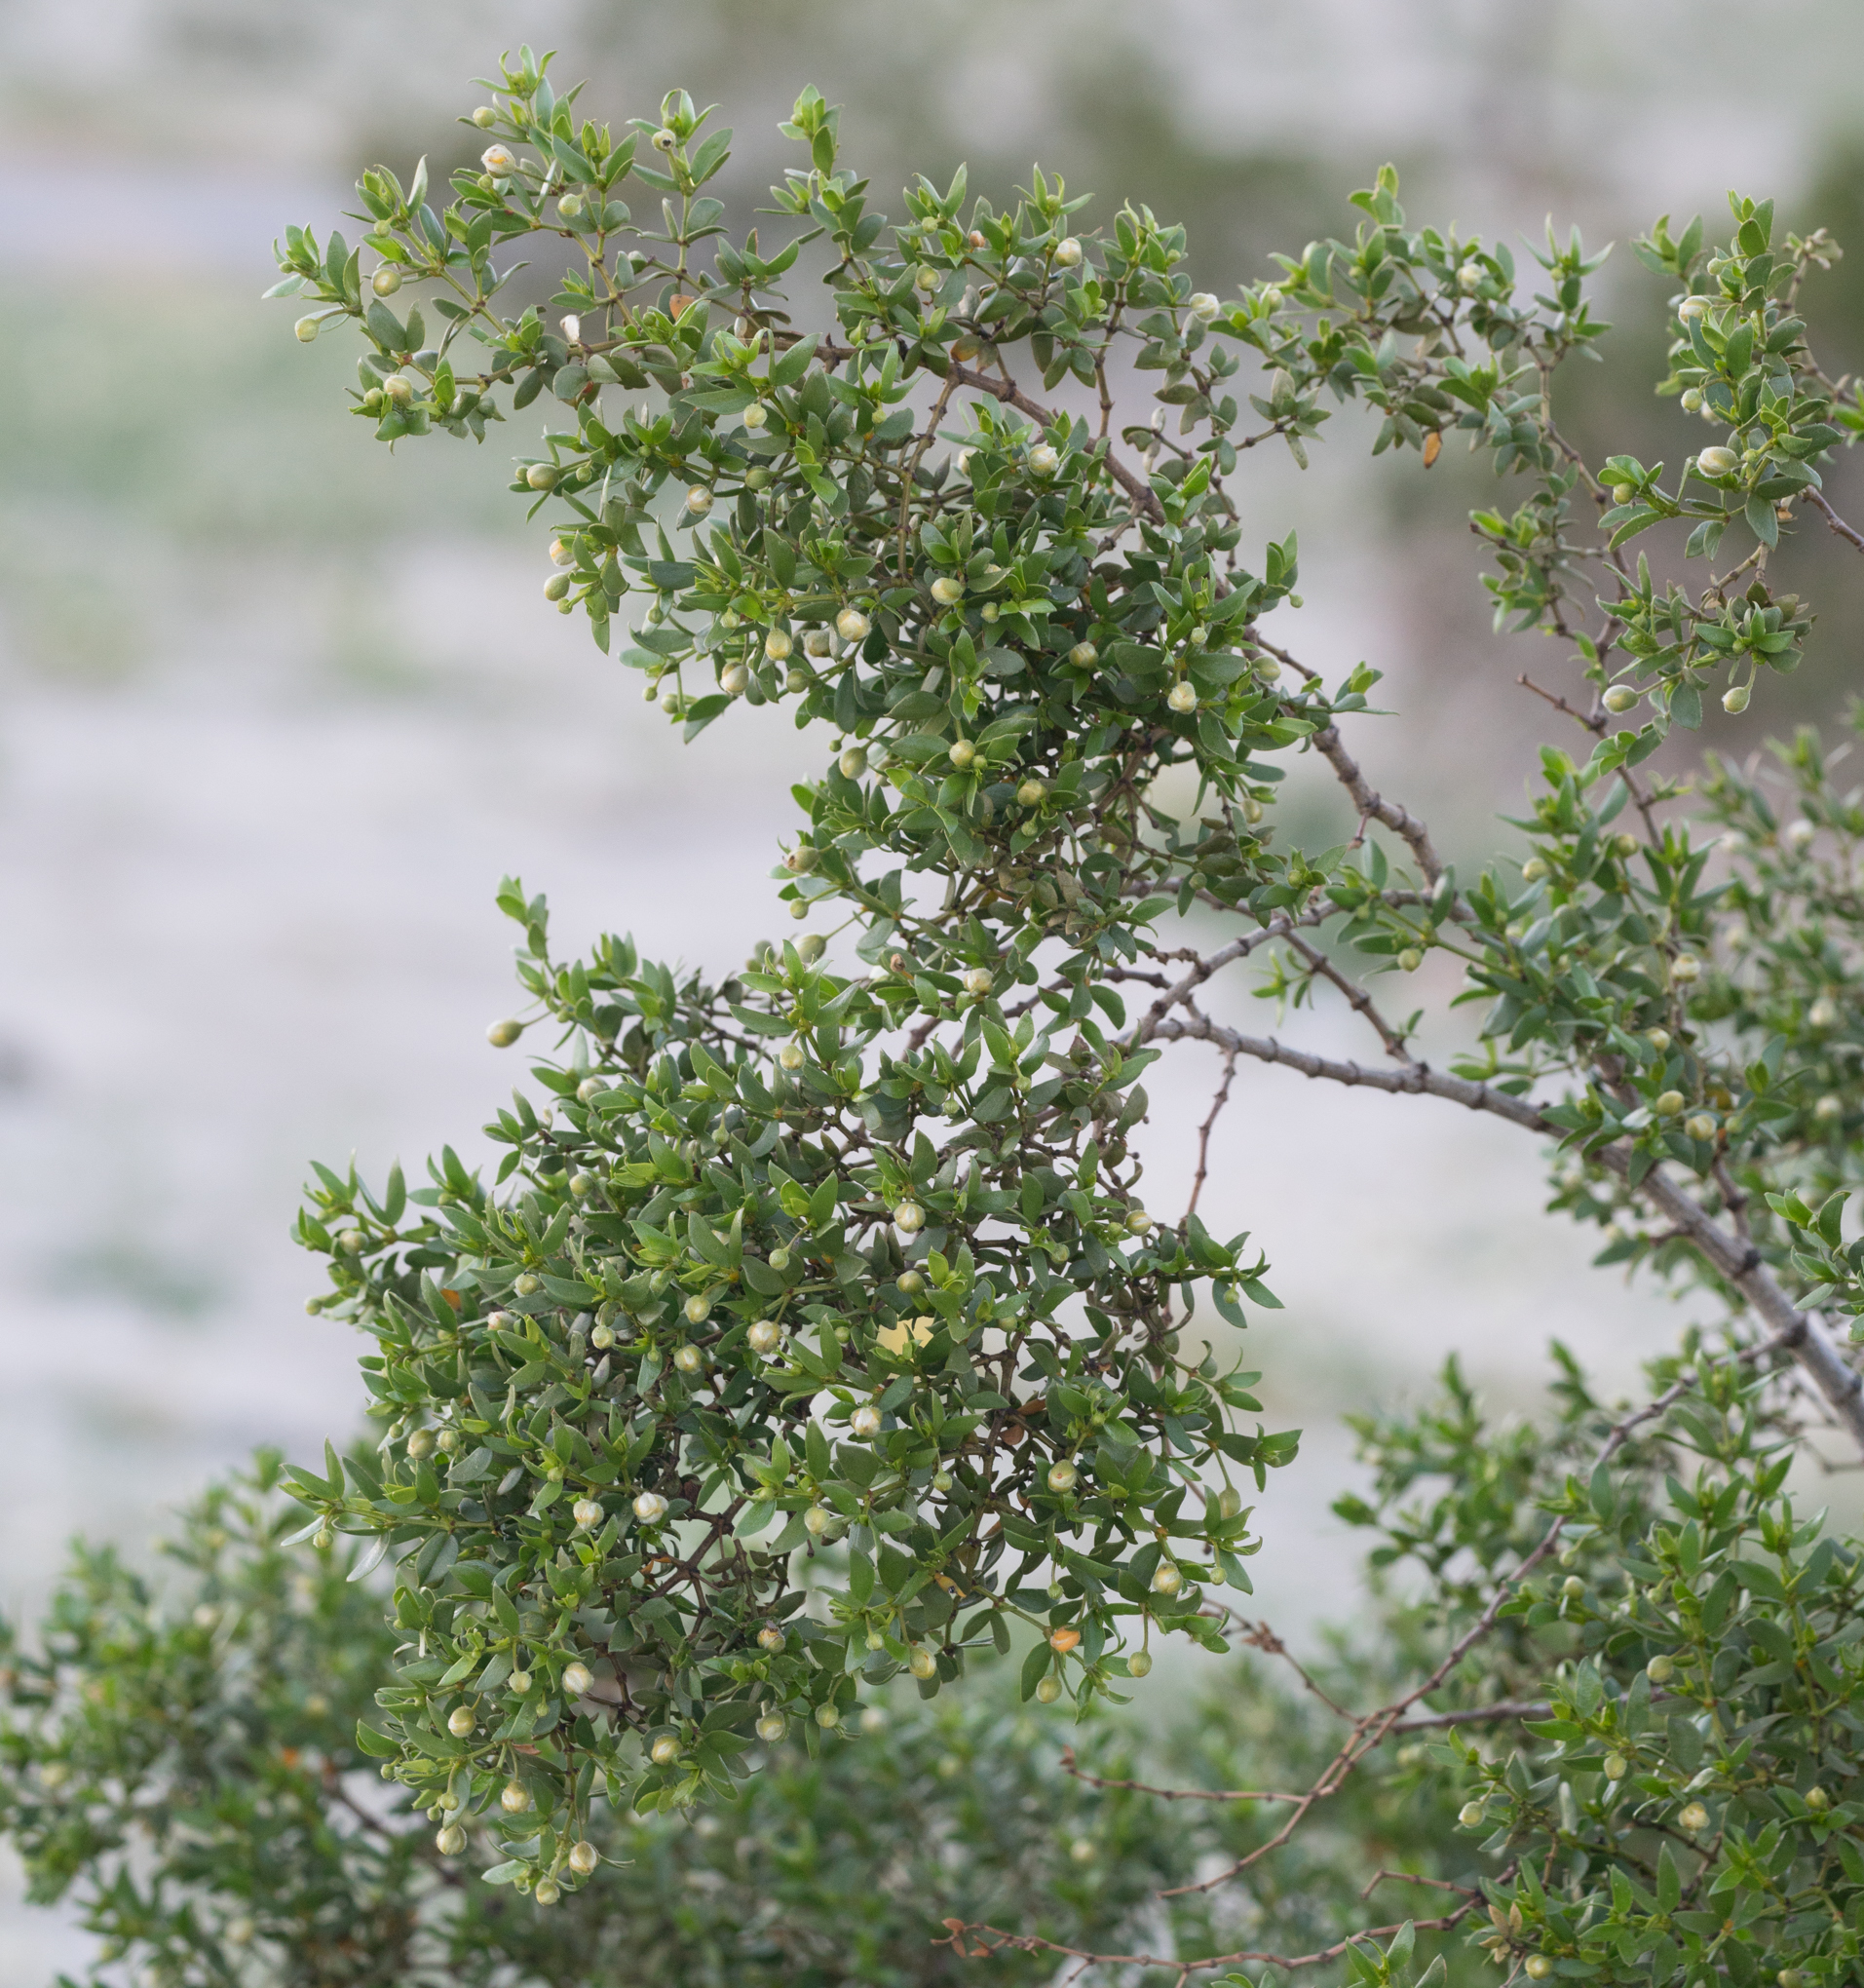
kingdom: Plantae
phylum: Tracheophyta
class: Magnoliopsida
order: Zygophyllales
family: Zygophyllaceae
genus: Larrea
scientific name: Larrea tridentata
